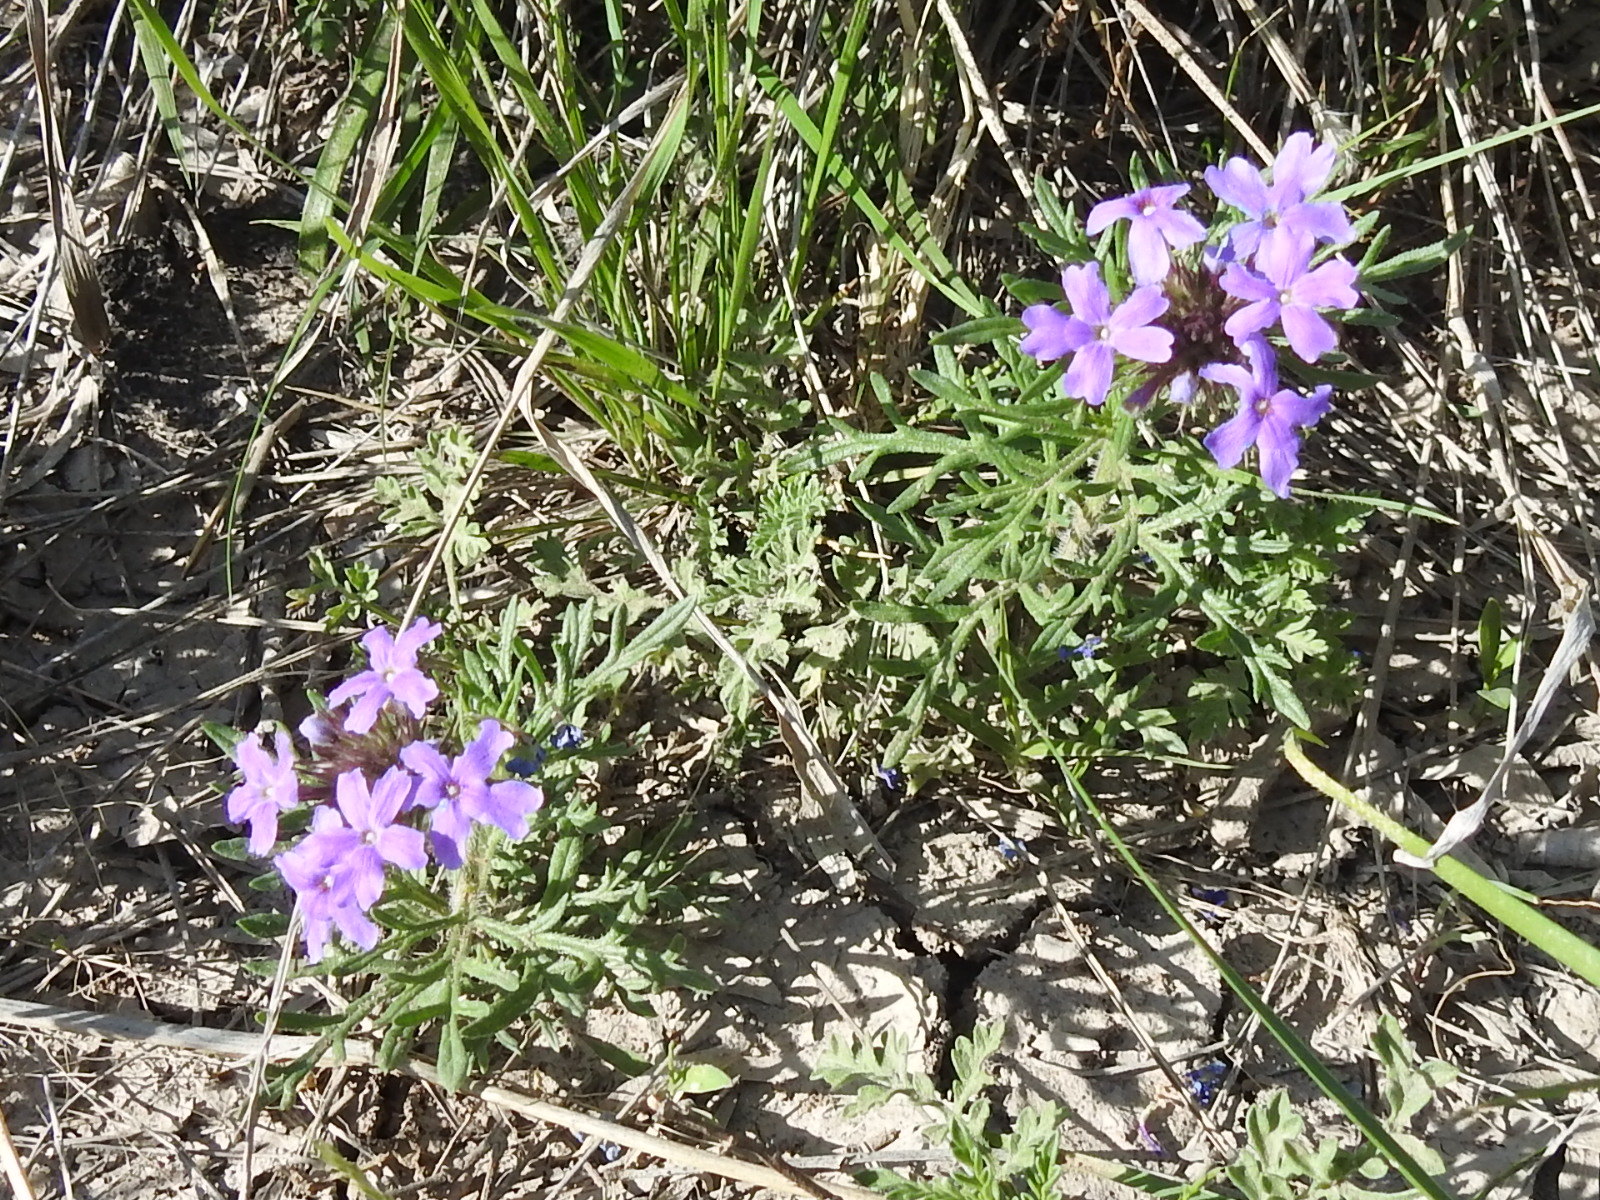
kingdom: Plantae
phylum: Tracheophyta
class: Magnoliopsida
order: Lamiales
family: Verbenaceae
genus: Verbena
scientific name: Verbena bipinnatifida
